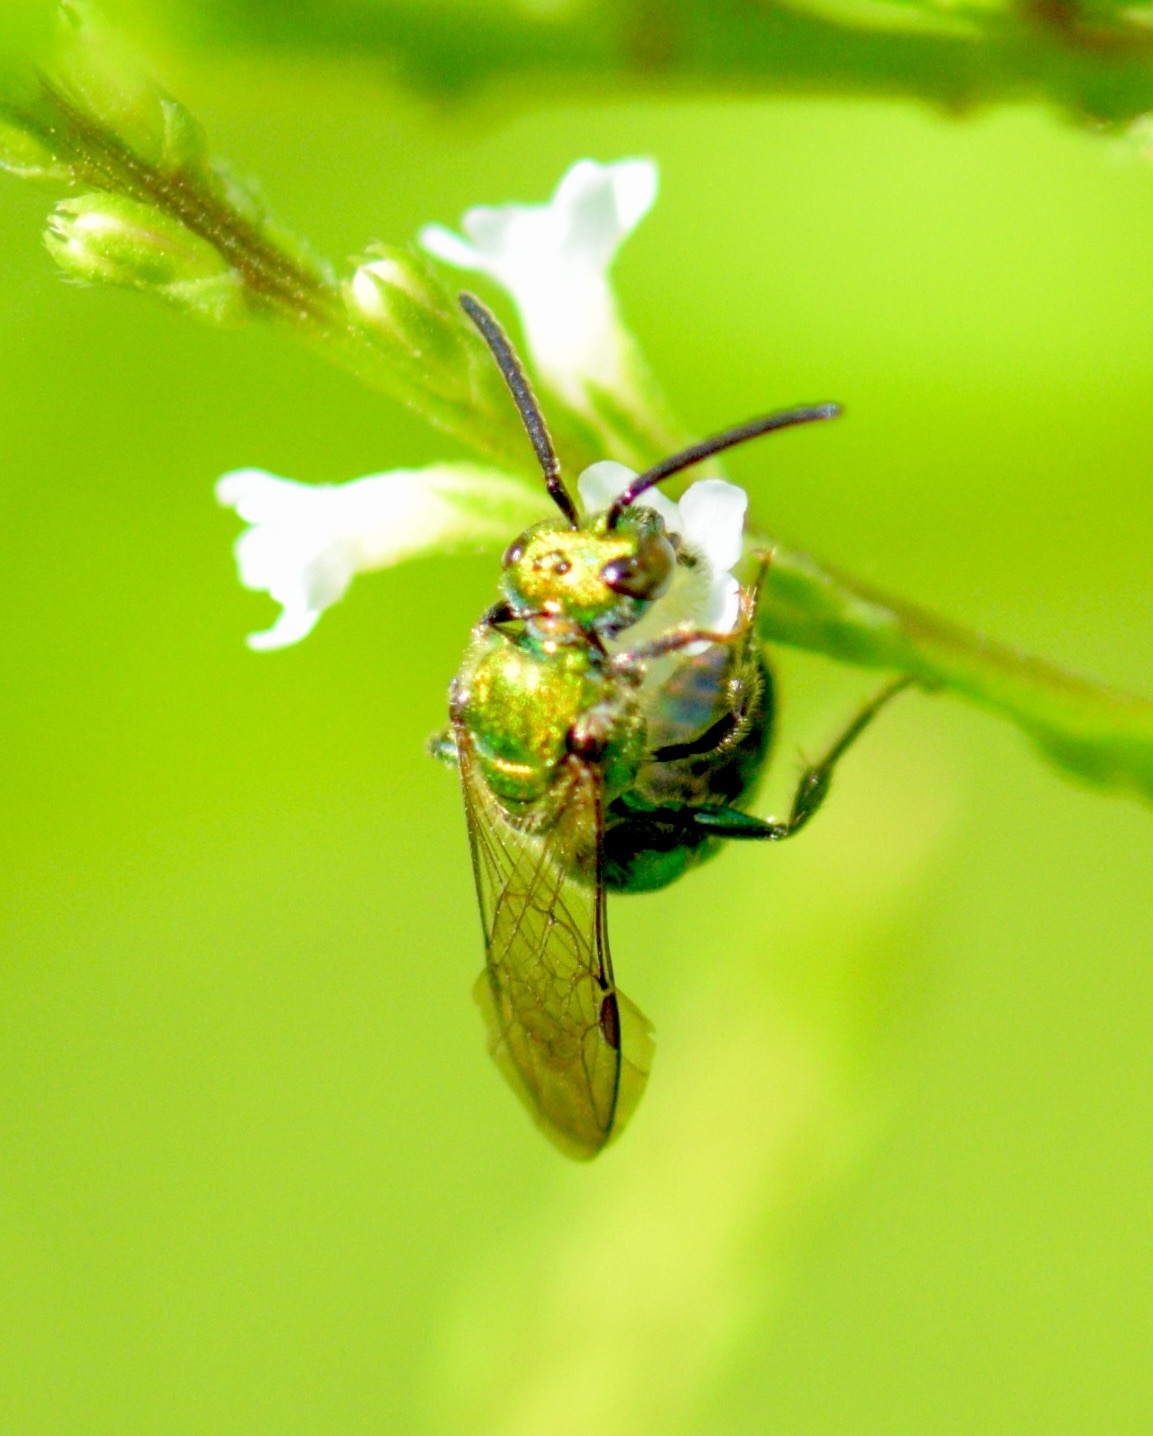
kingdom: Animalia
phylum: Arthropoda
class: Insecta
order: Hymenoptera
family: Halictidae
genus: Augochlora
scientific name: Augochlora pura
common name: Pure green sweat bee
